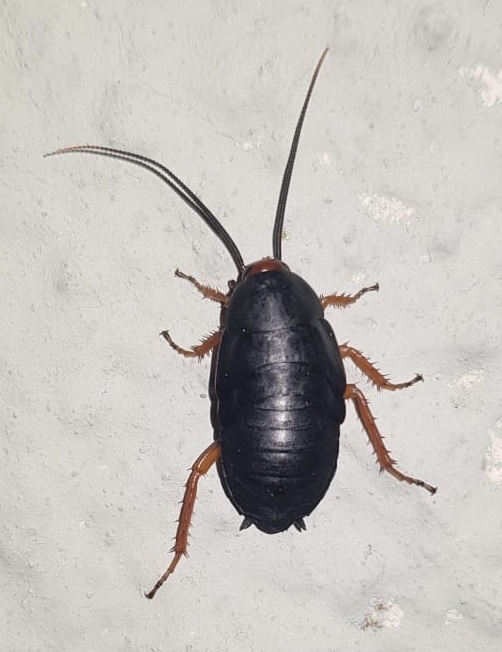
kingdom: Animalia
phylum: Arthropoda
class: Insecta
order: Blattodea
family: Blattidae
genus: Deropeltis
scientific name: Deropeltis erythrocephala
